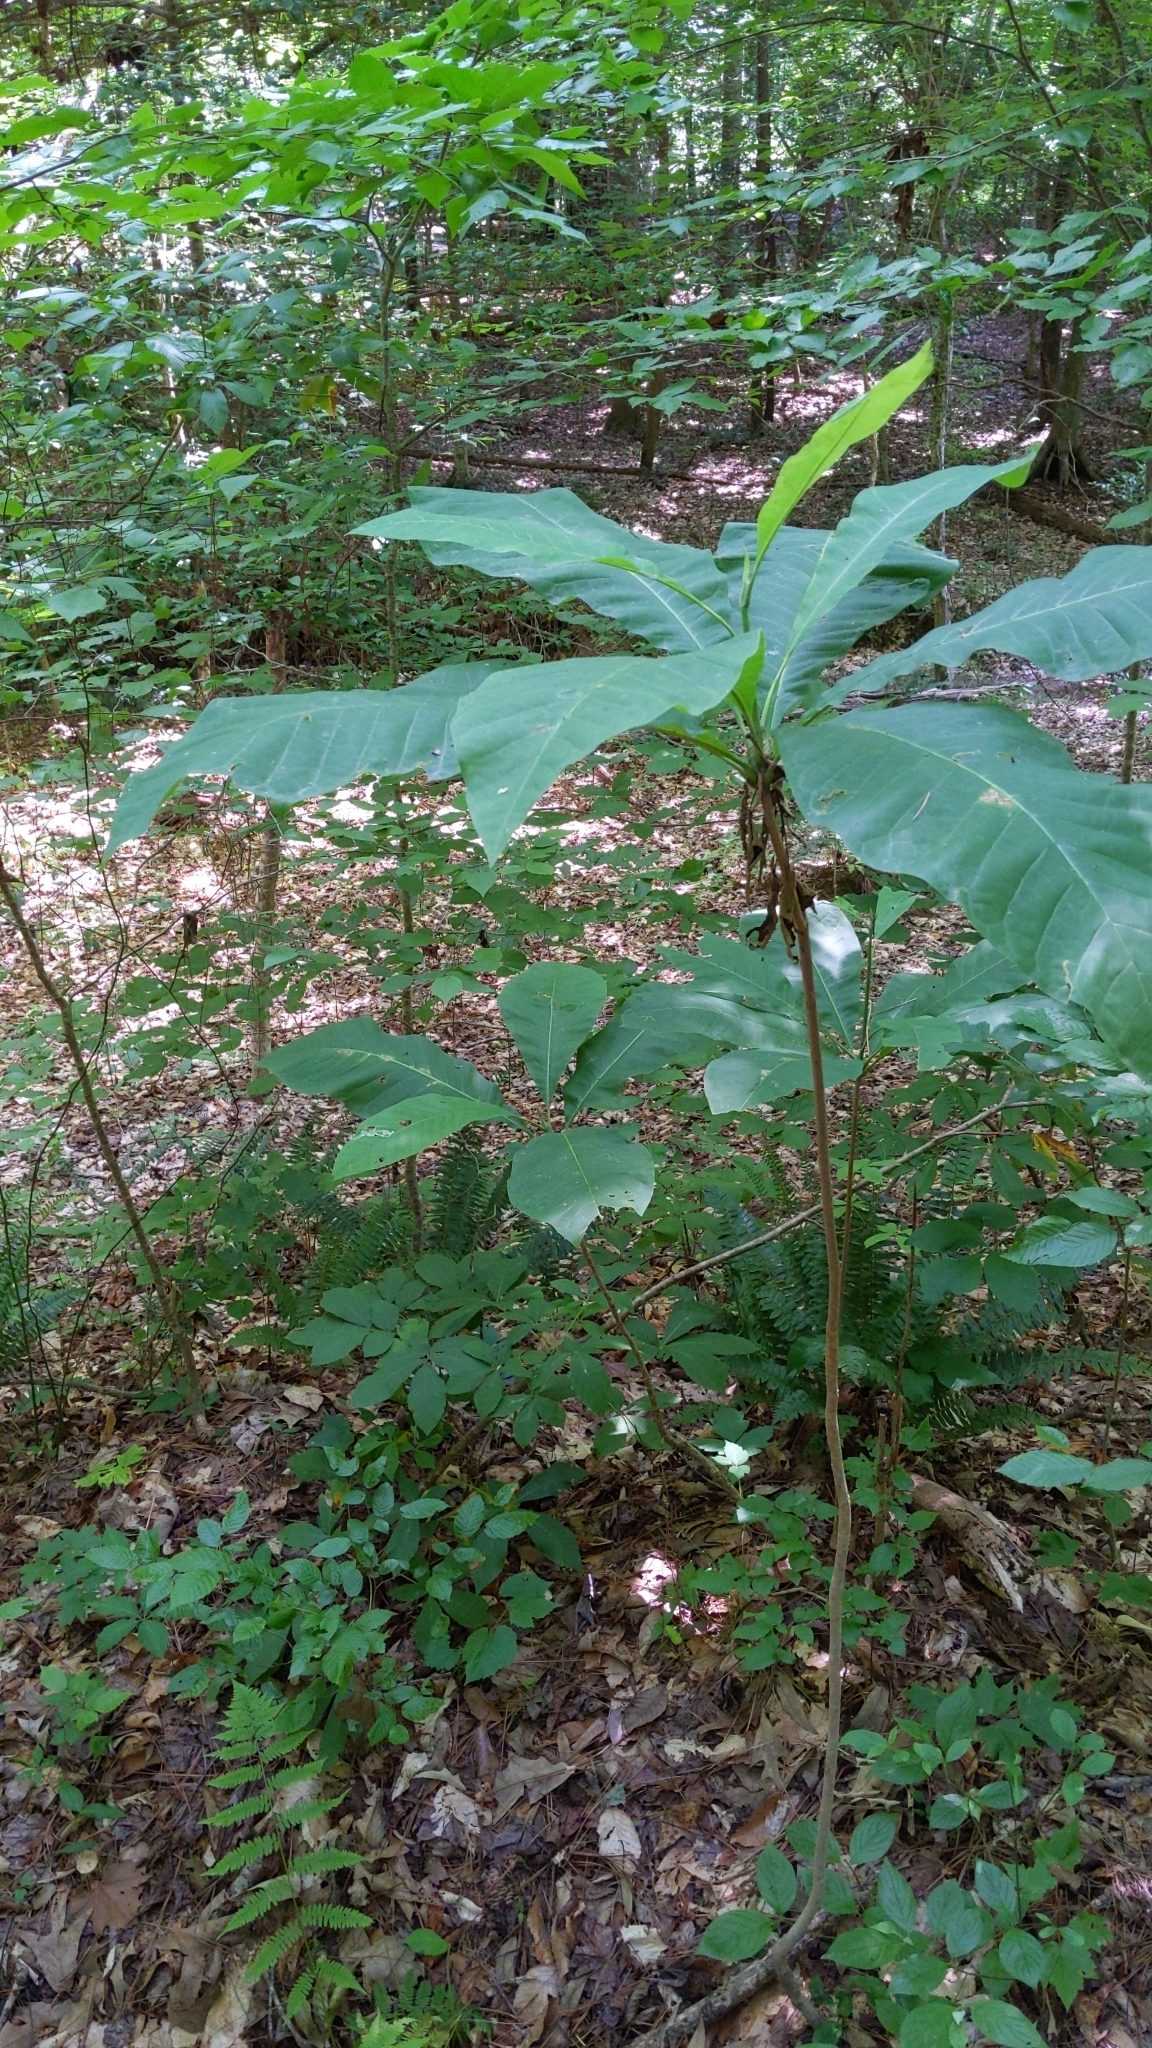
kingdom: Plantae
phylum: Tracheophyta
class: Magnoliopsida
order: Magnoliales
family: Magnoliaceae
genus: Magnolia
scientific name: Magnolia tripetala
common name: Umbrella magnolia
